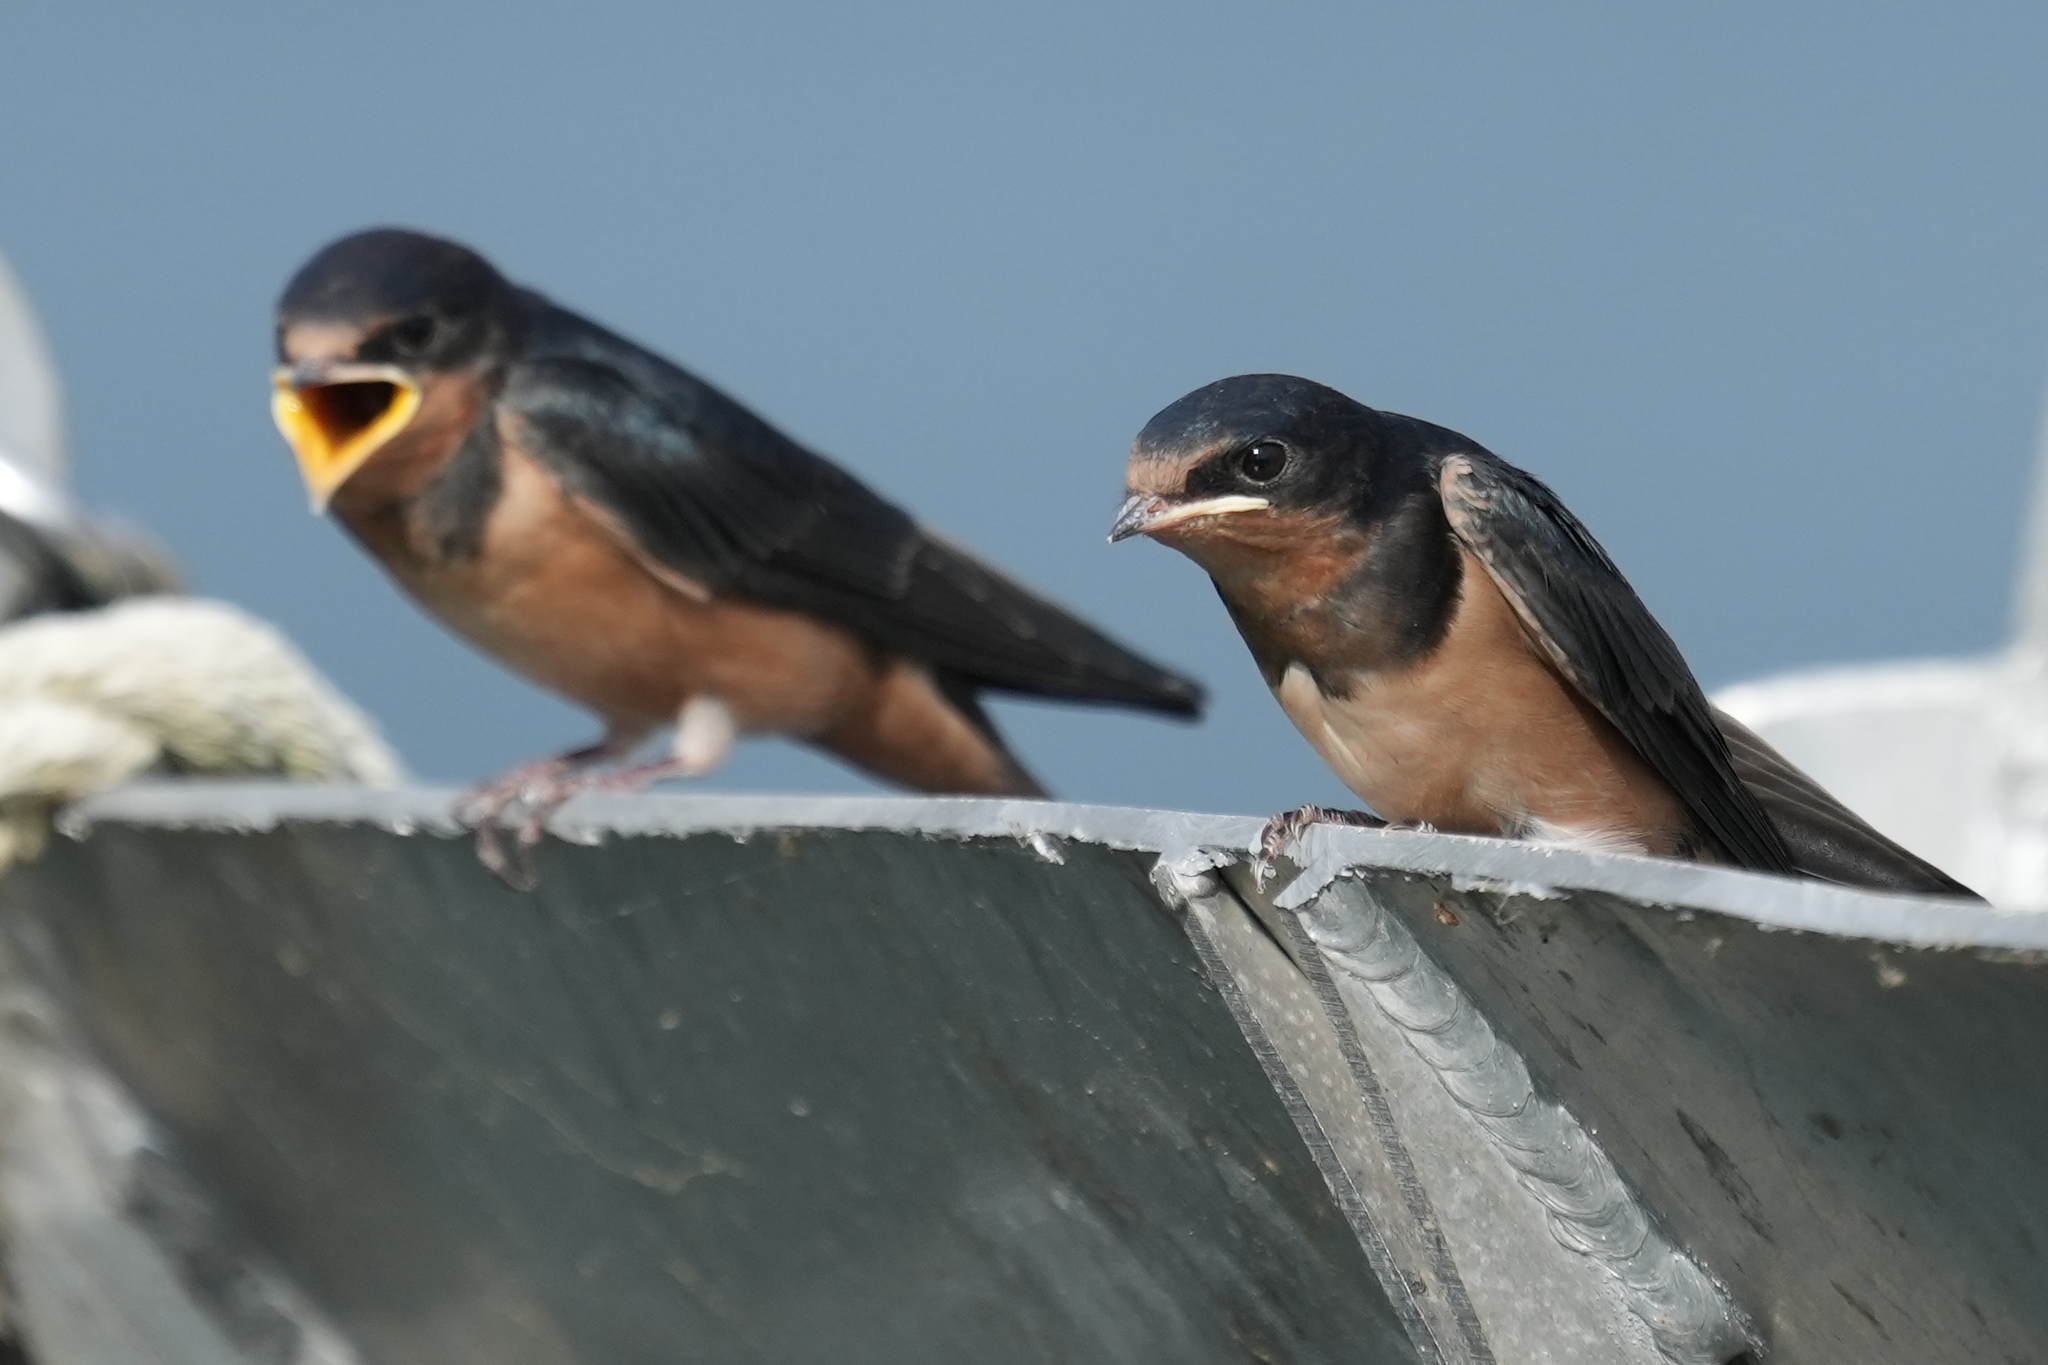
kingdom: Animalia
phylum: Chordata
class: Aves
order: Passeriformes
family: Hirundinidae
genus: Hirundo
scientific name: Hirundo rustica
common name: Barn swallow
